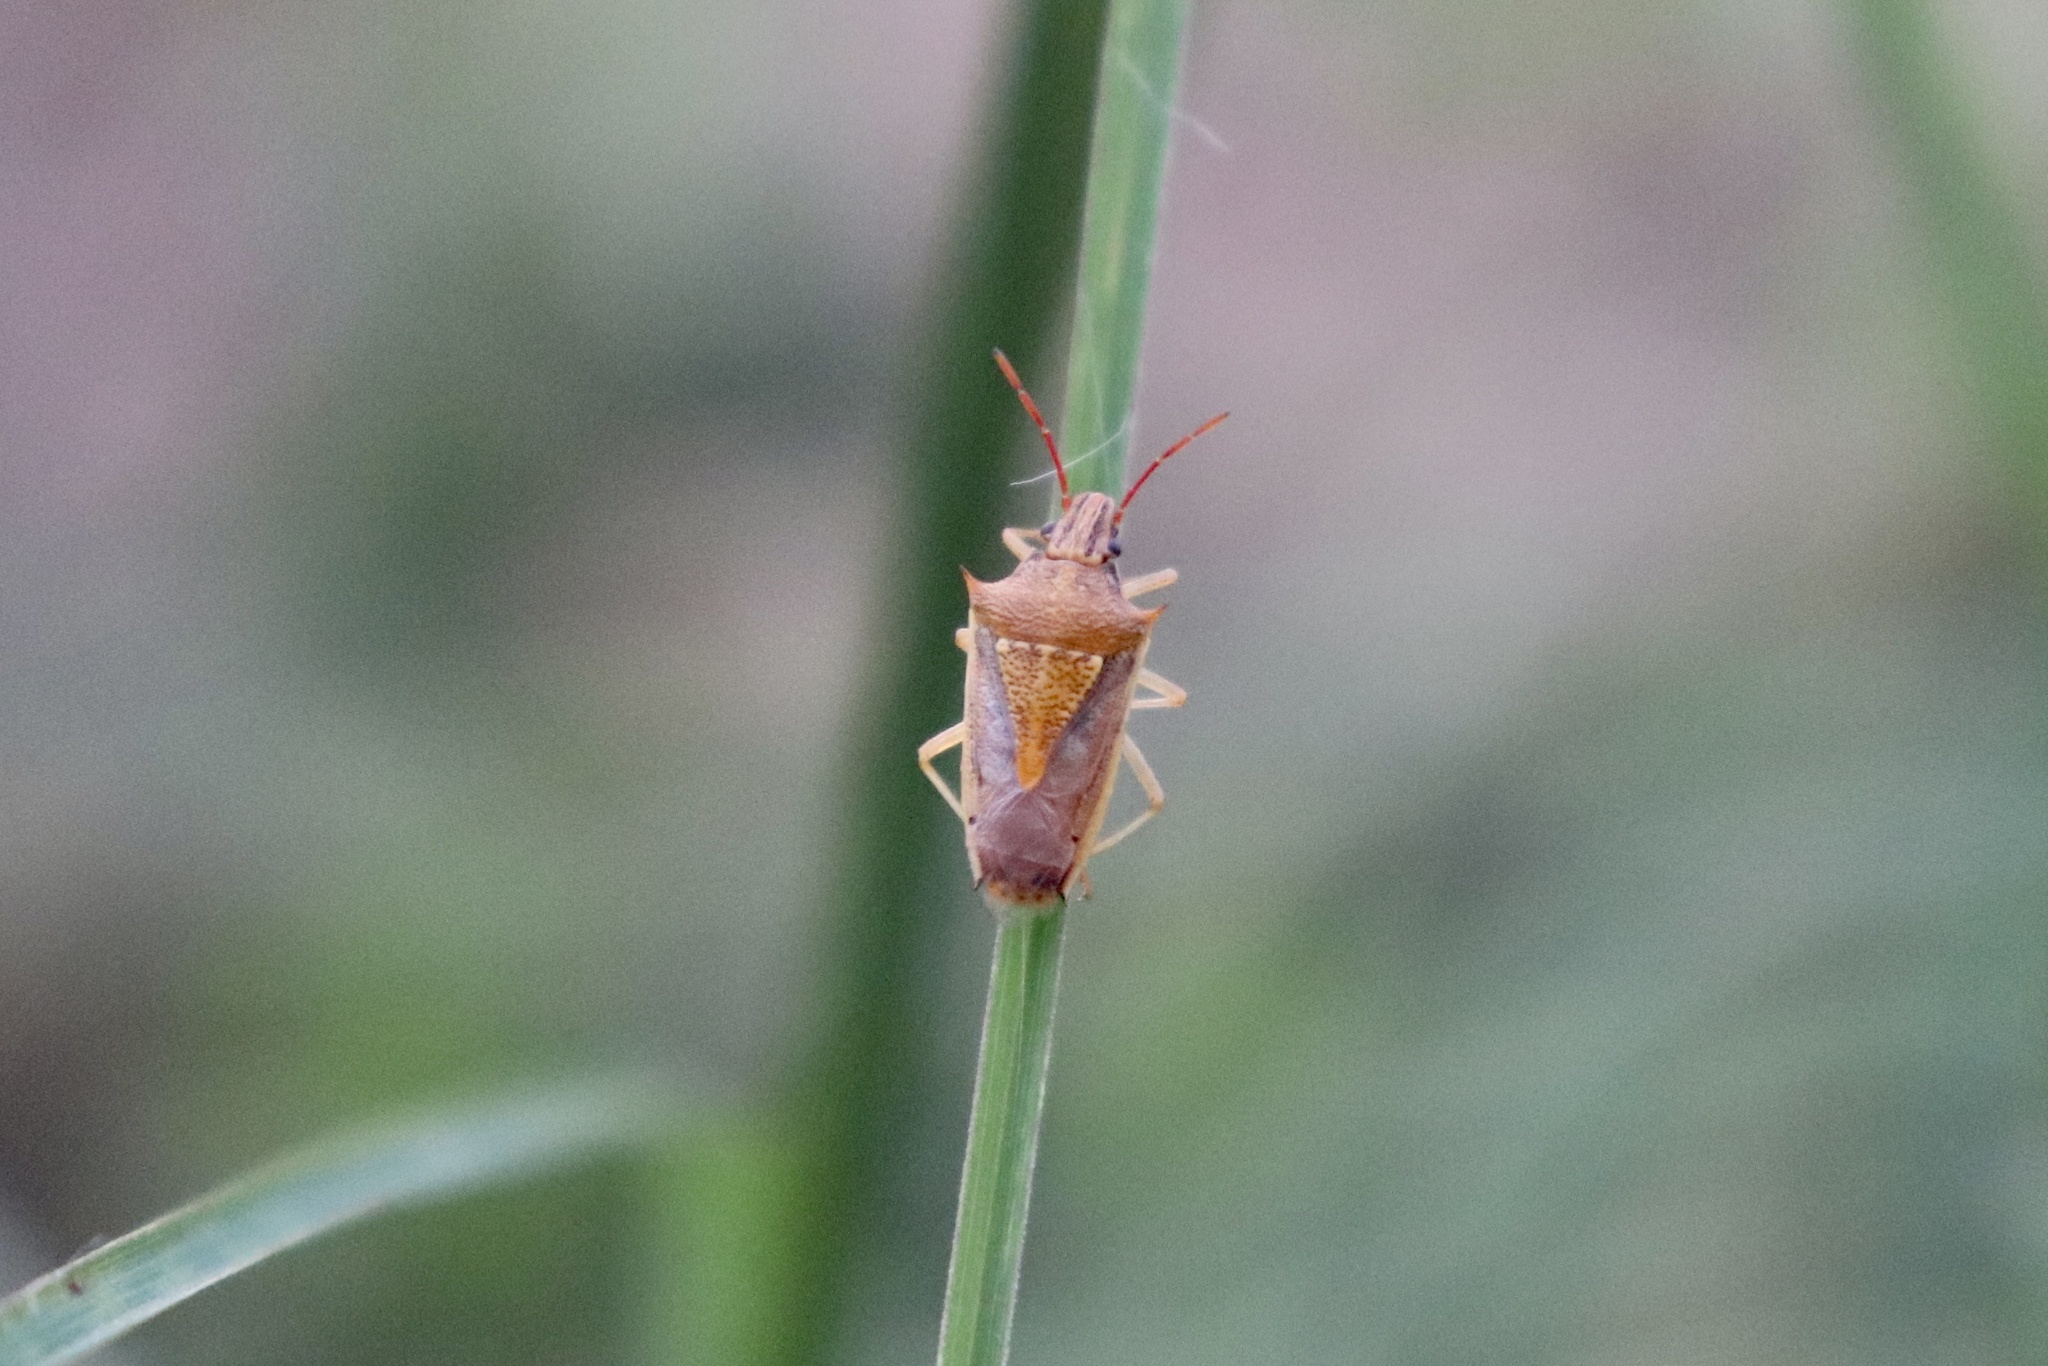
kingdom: Animalia
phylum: Arthropoda
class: Insecta
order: Hemiptera
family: Pentatomidae
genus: Oebalus
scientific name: Oebalus pugnax
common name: Rice stink bug
